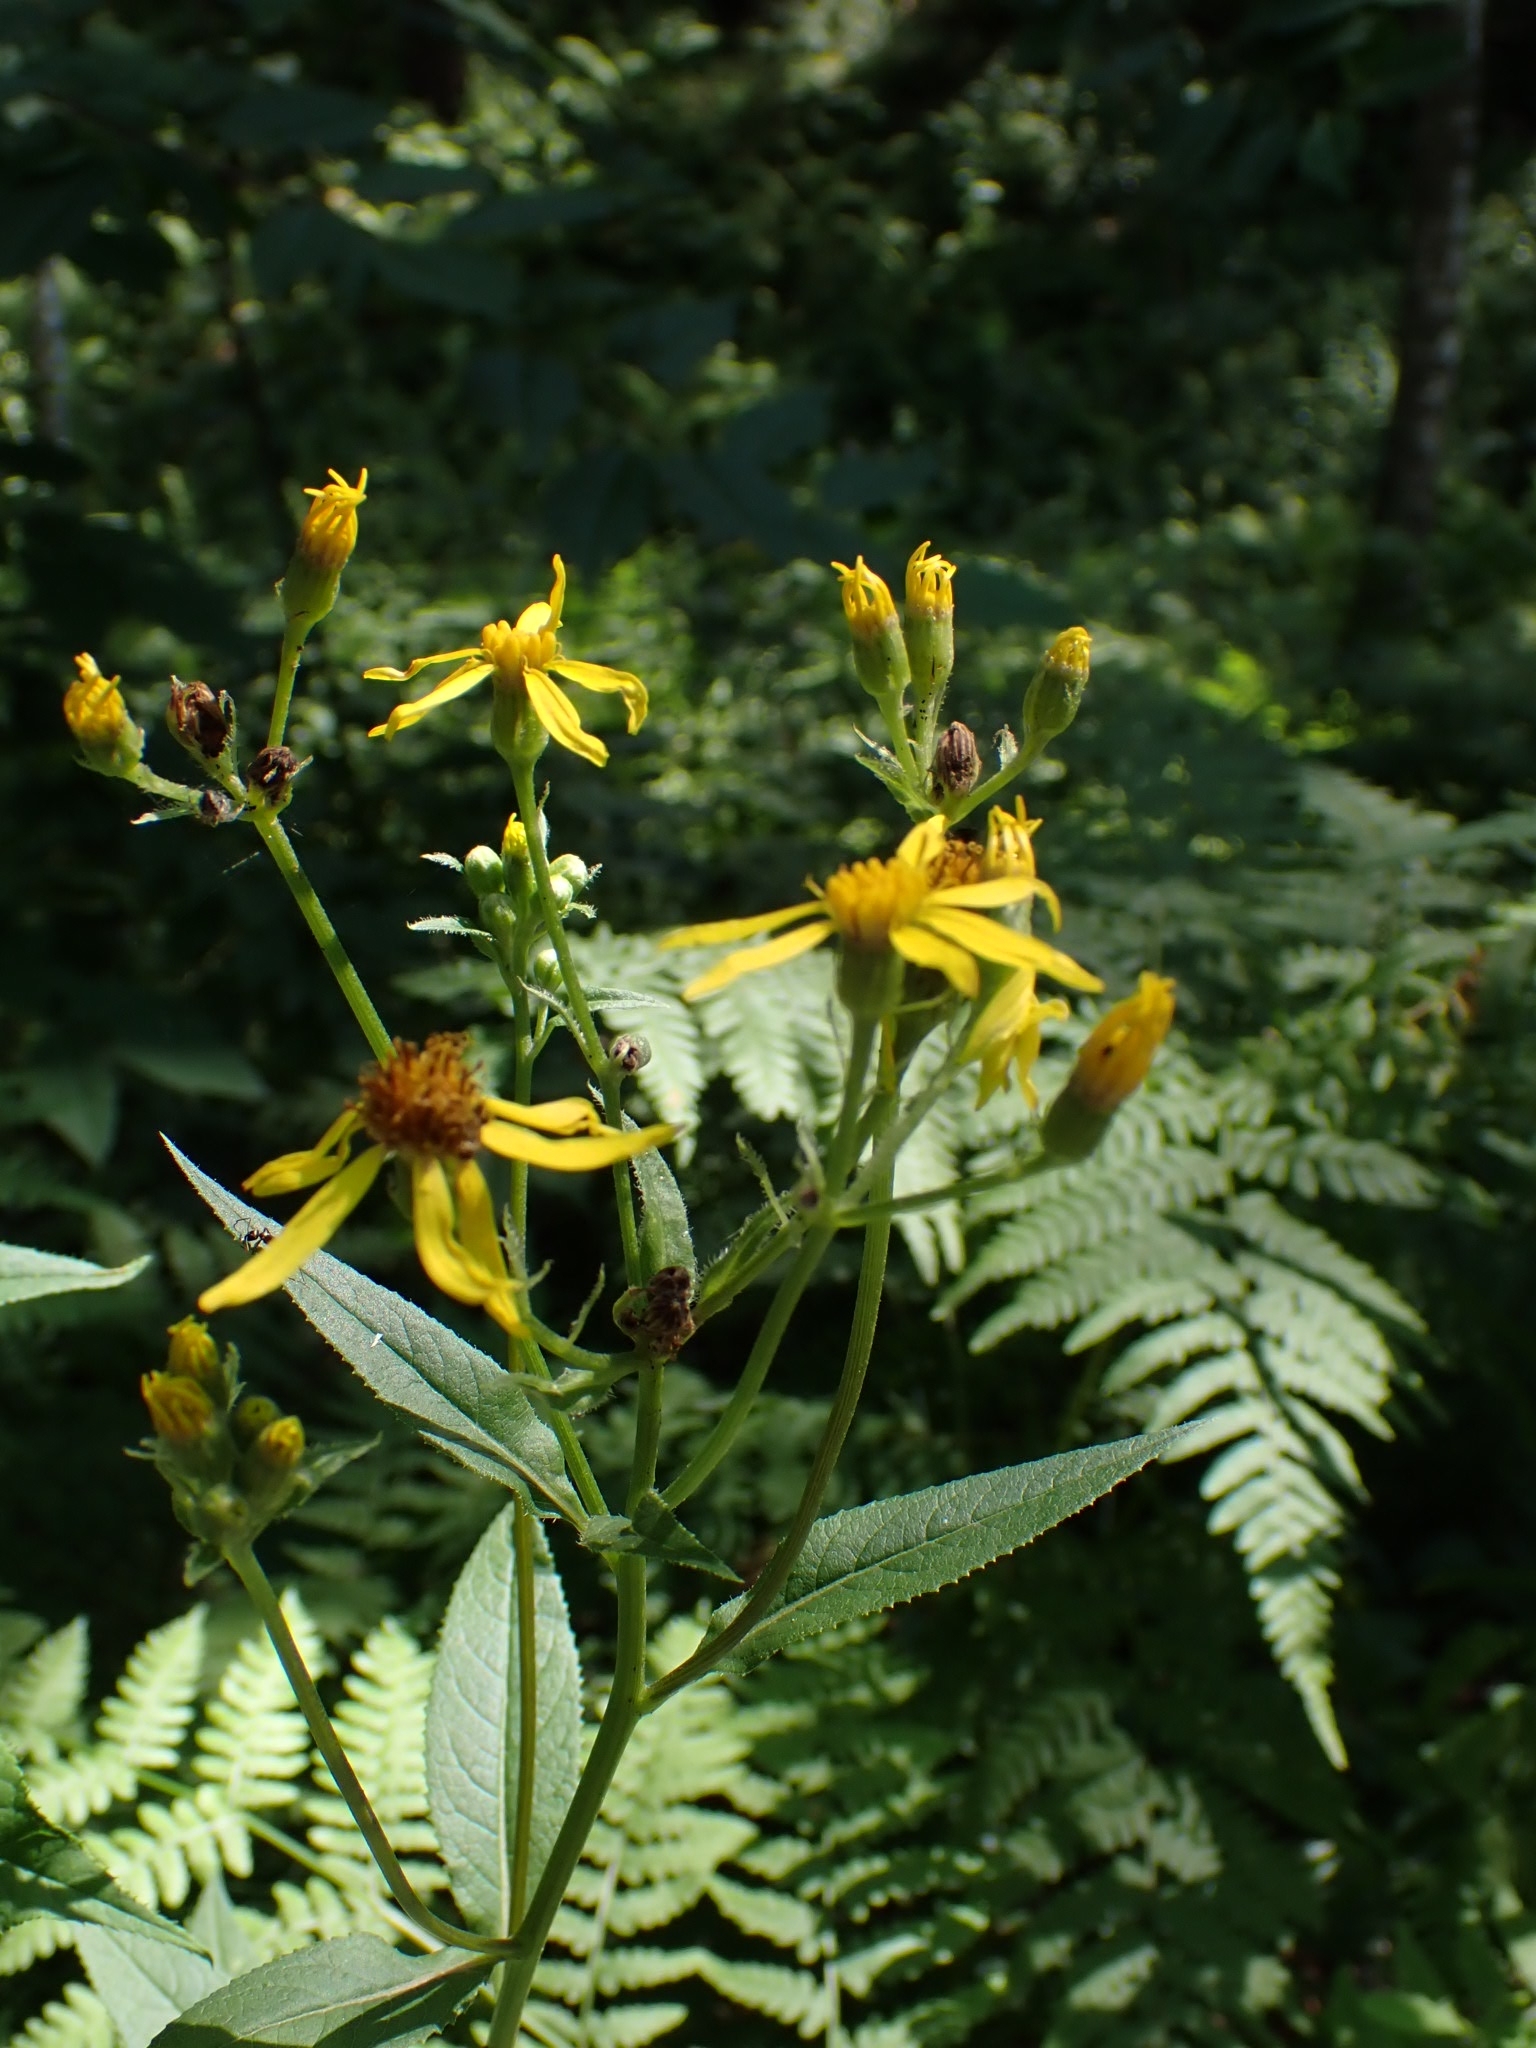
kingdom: Plantae
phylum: Tracheophyta
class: Magnoliopsida
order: Asterales
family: Asteraceae
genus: Senecio
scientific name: Senecio nemorensis
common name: Alpine ragwort
